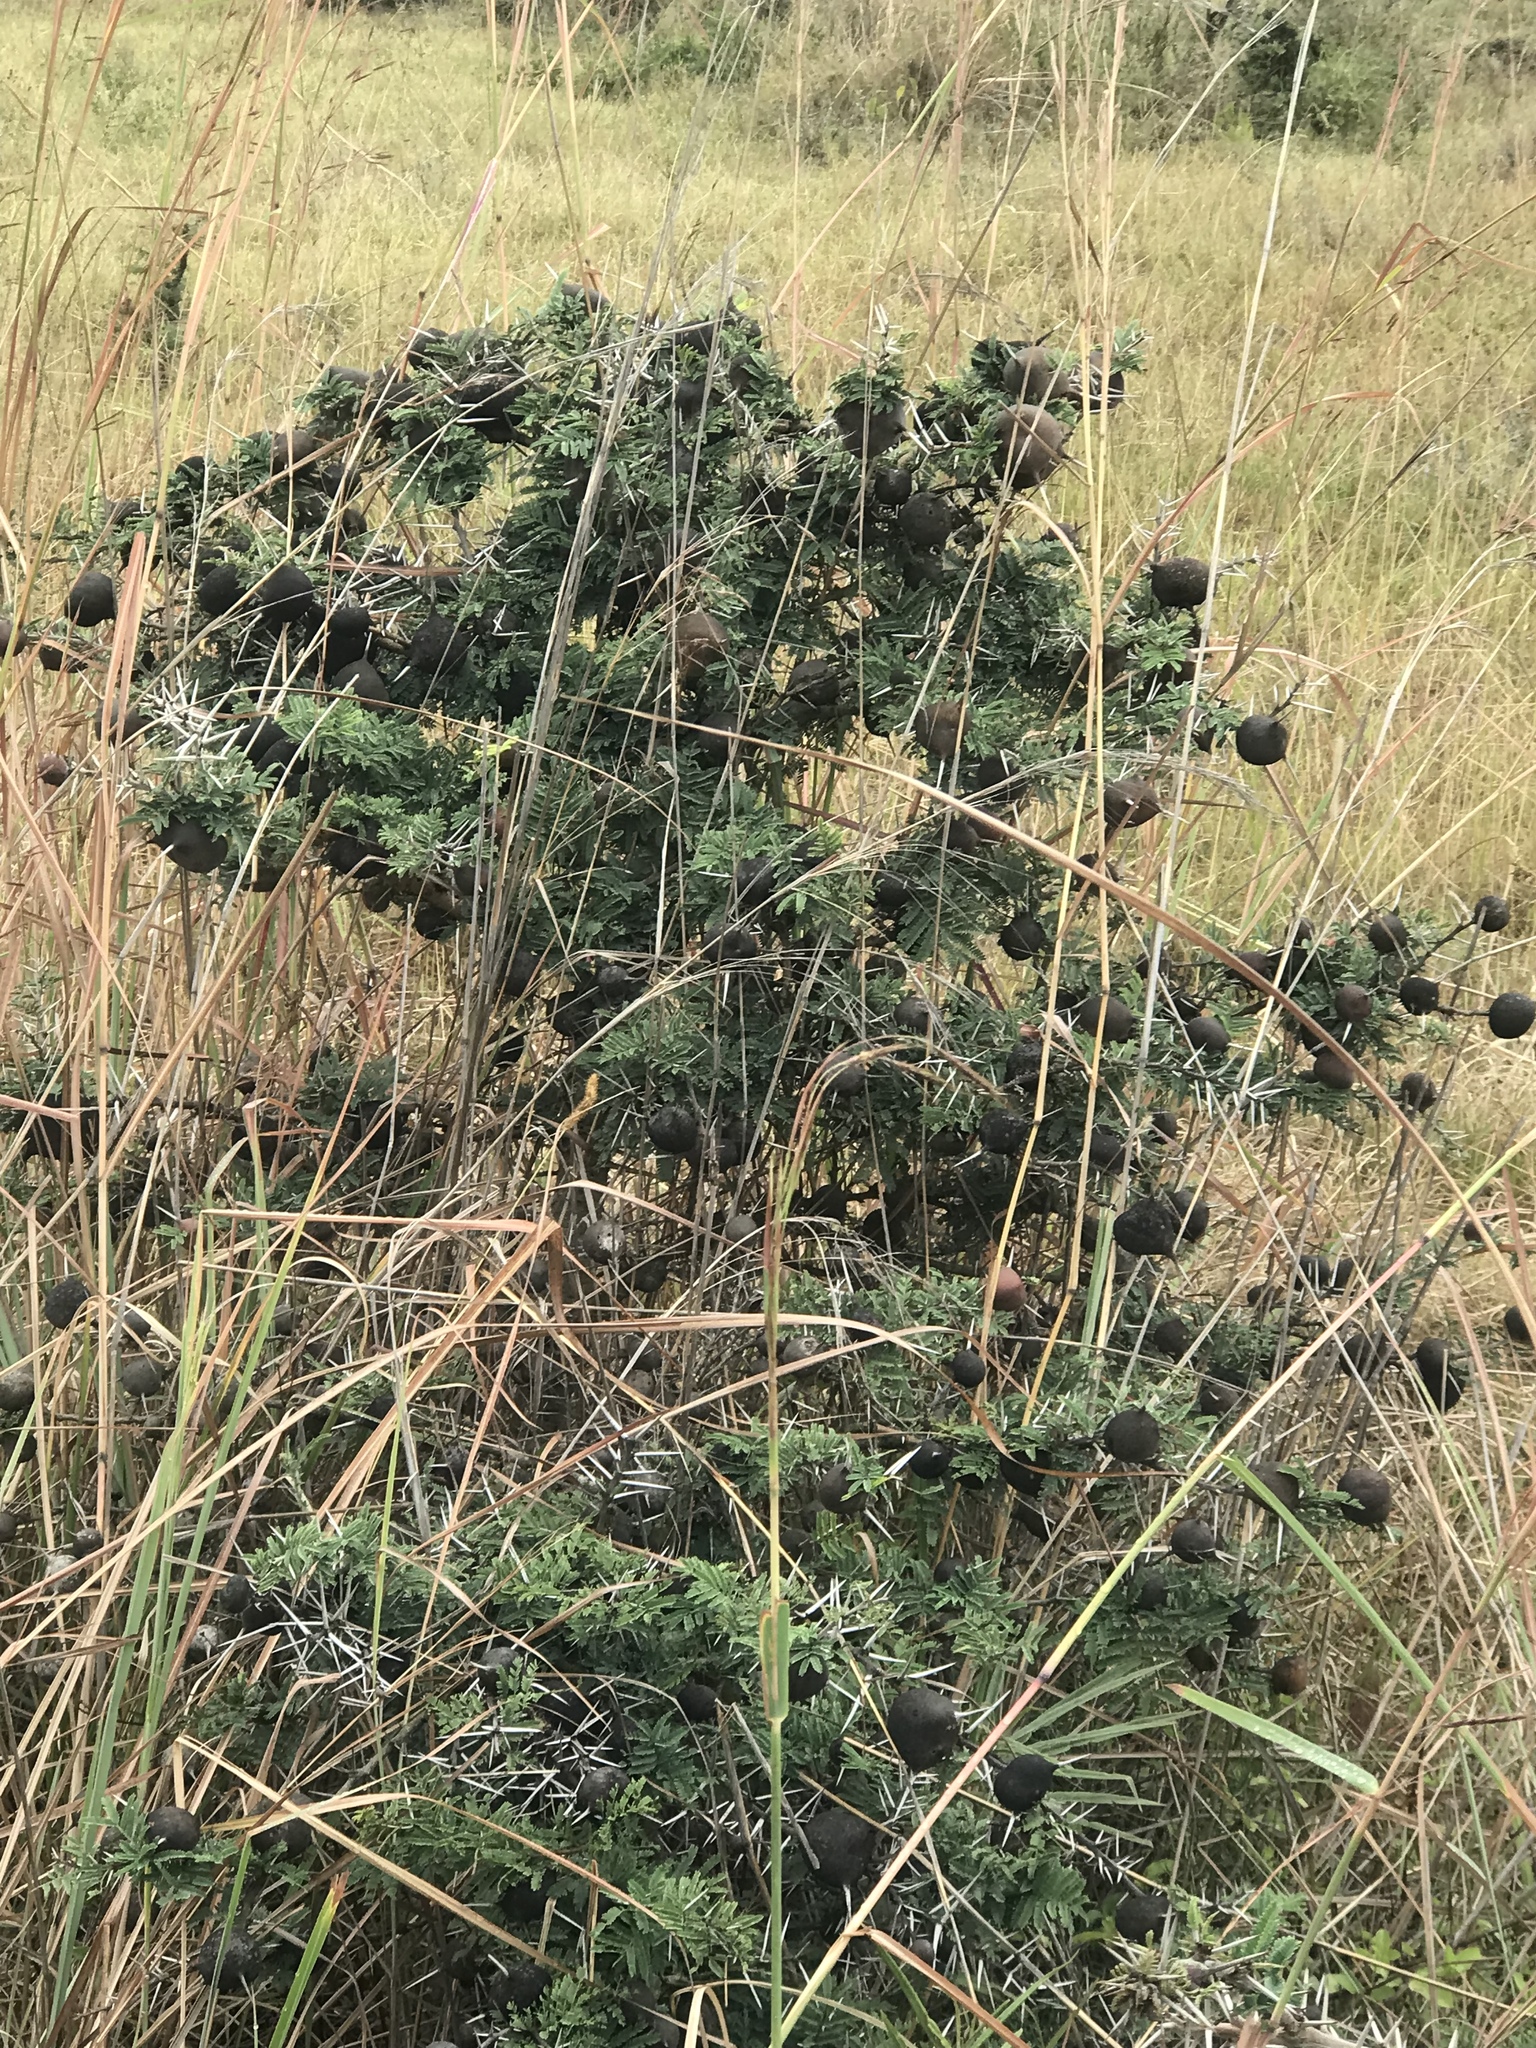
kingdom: Plantae
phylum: Tracheophyta
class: Magnoliopsida
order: Fabales
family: Fabaceae
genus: Vachellia
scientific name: Vachellia drepanolobium
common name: Whistling thorn
